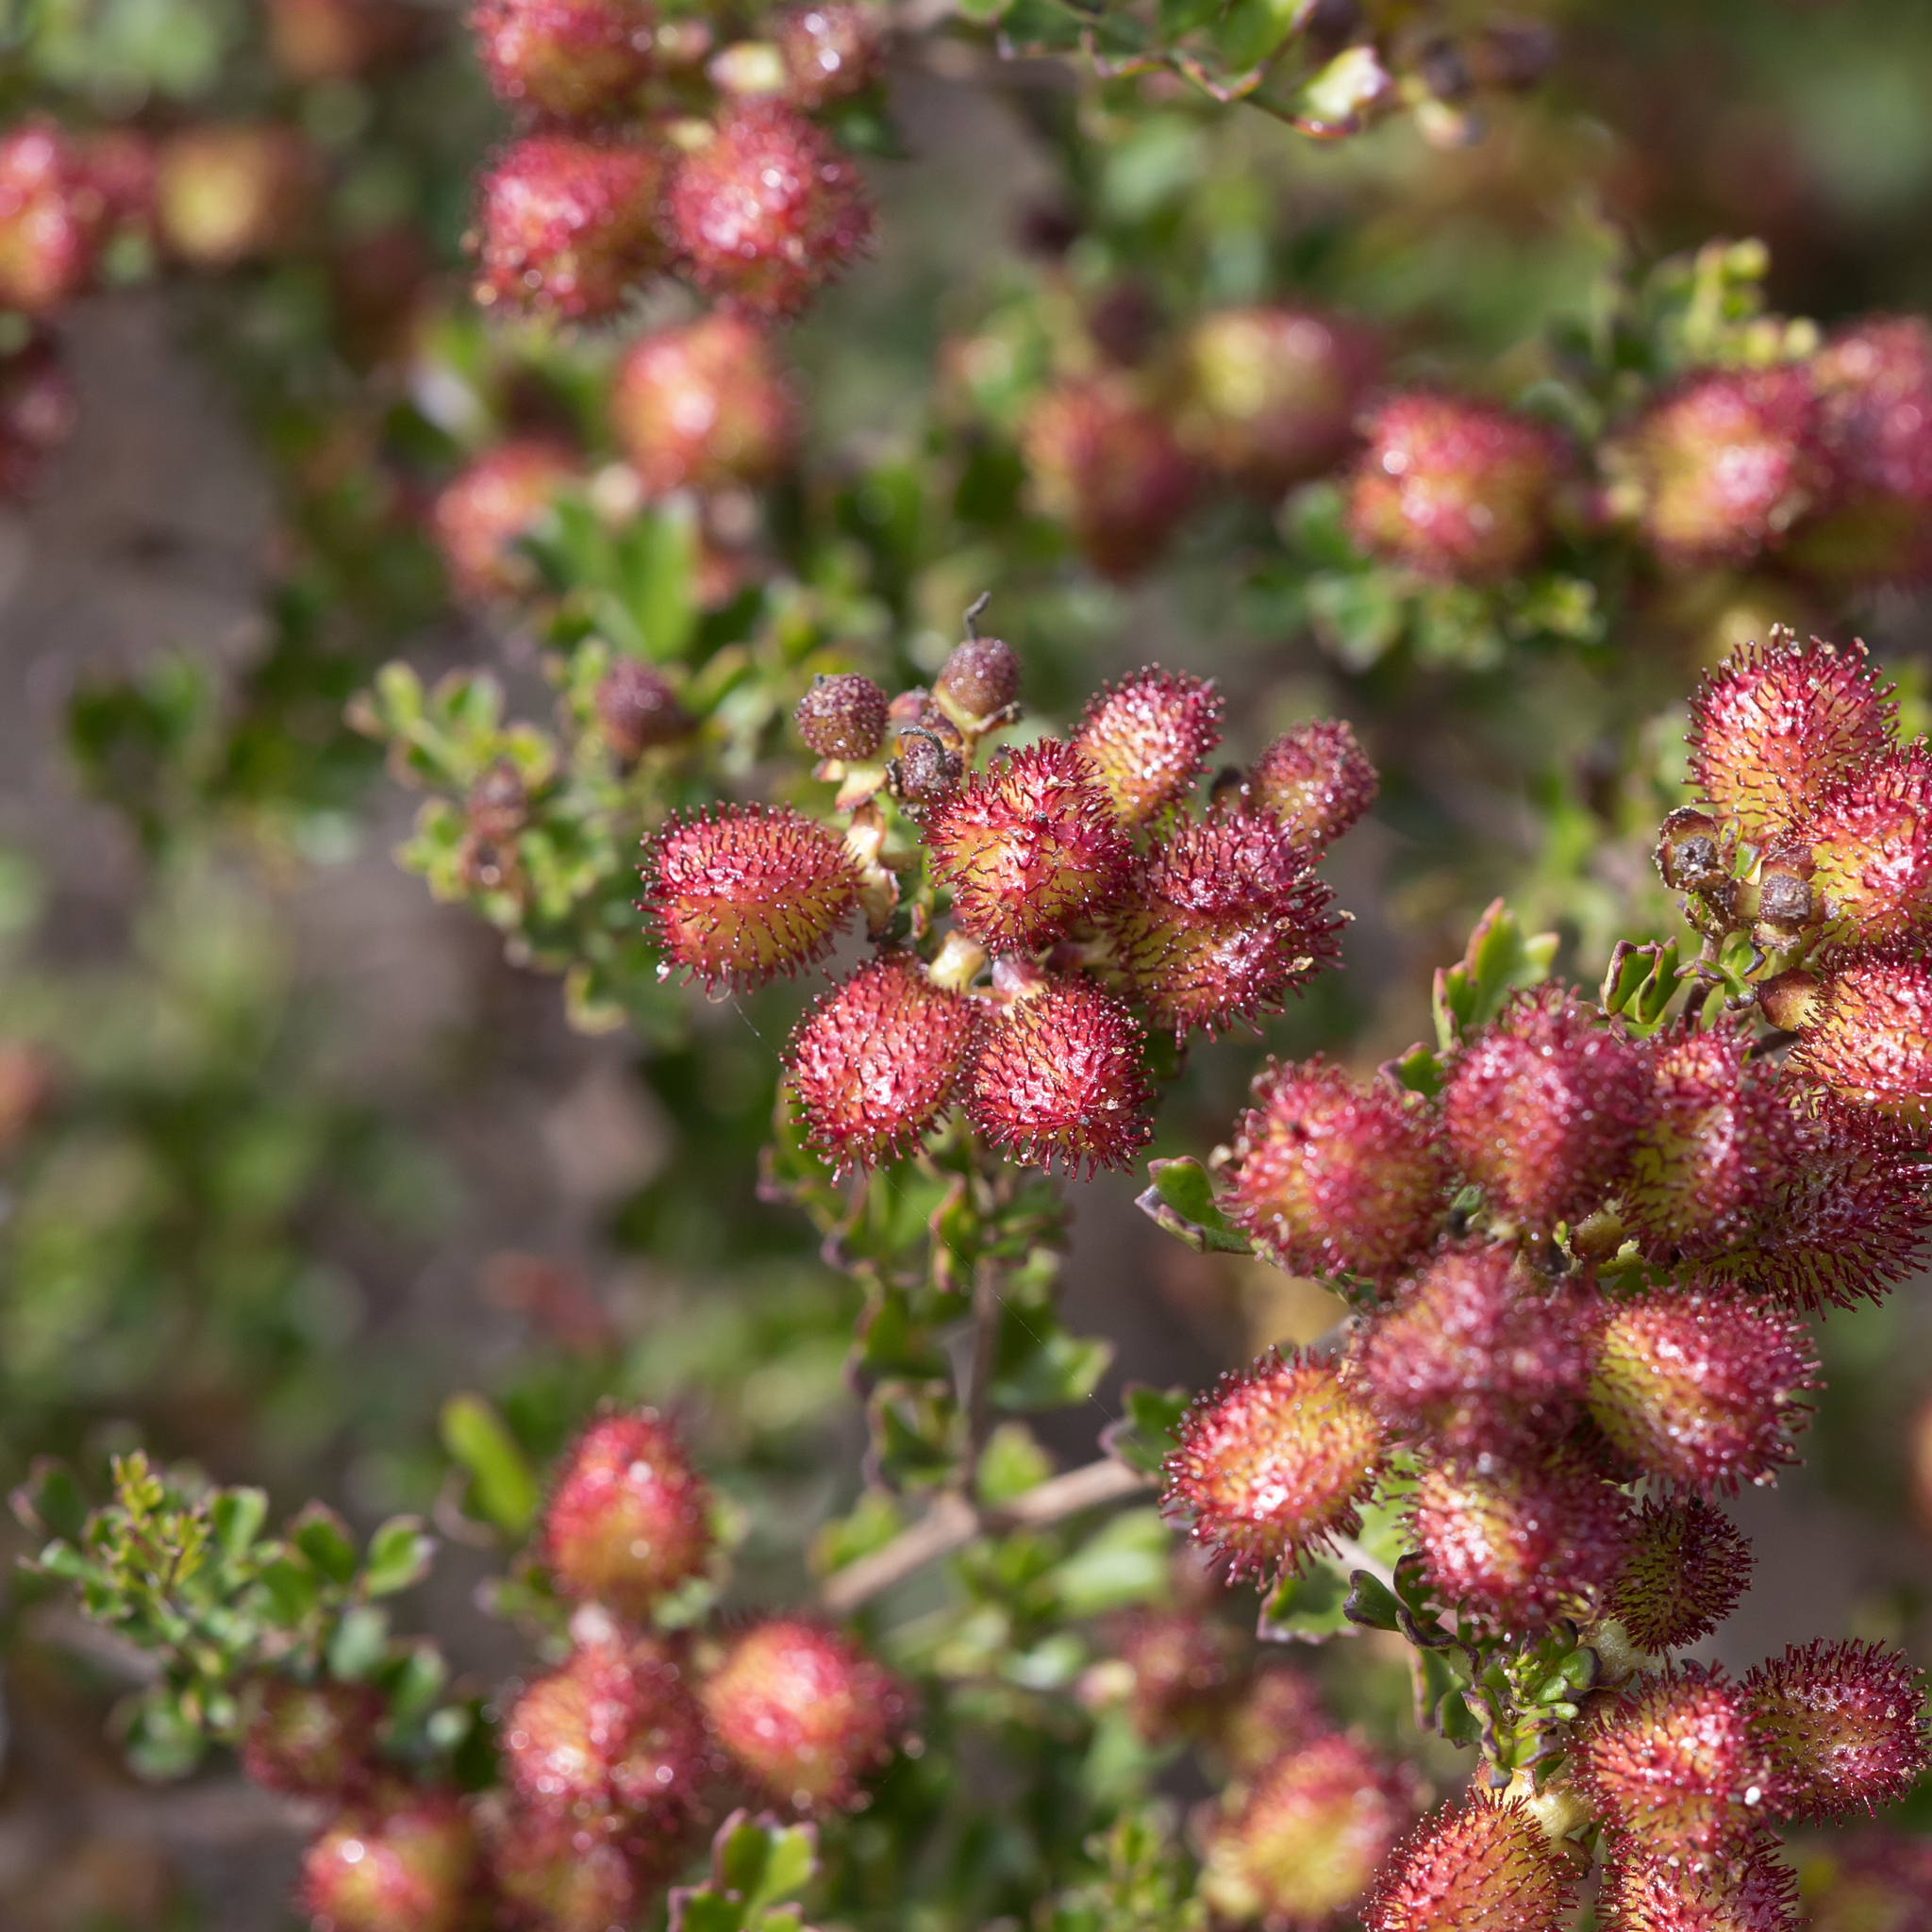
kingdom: Plantae
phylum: Tracheophyta
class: Magnoliopsida
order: Sapindales
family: Sapindaceae
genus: Dodonaea
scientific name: Dodonaea humilis
